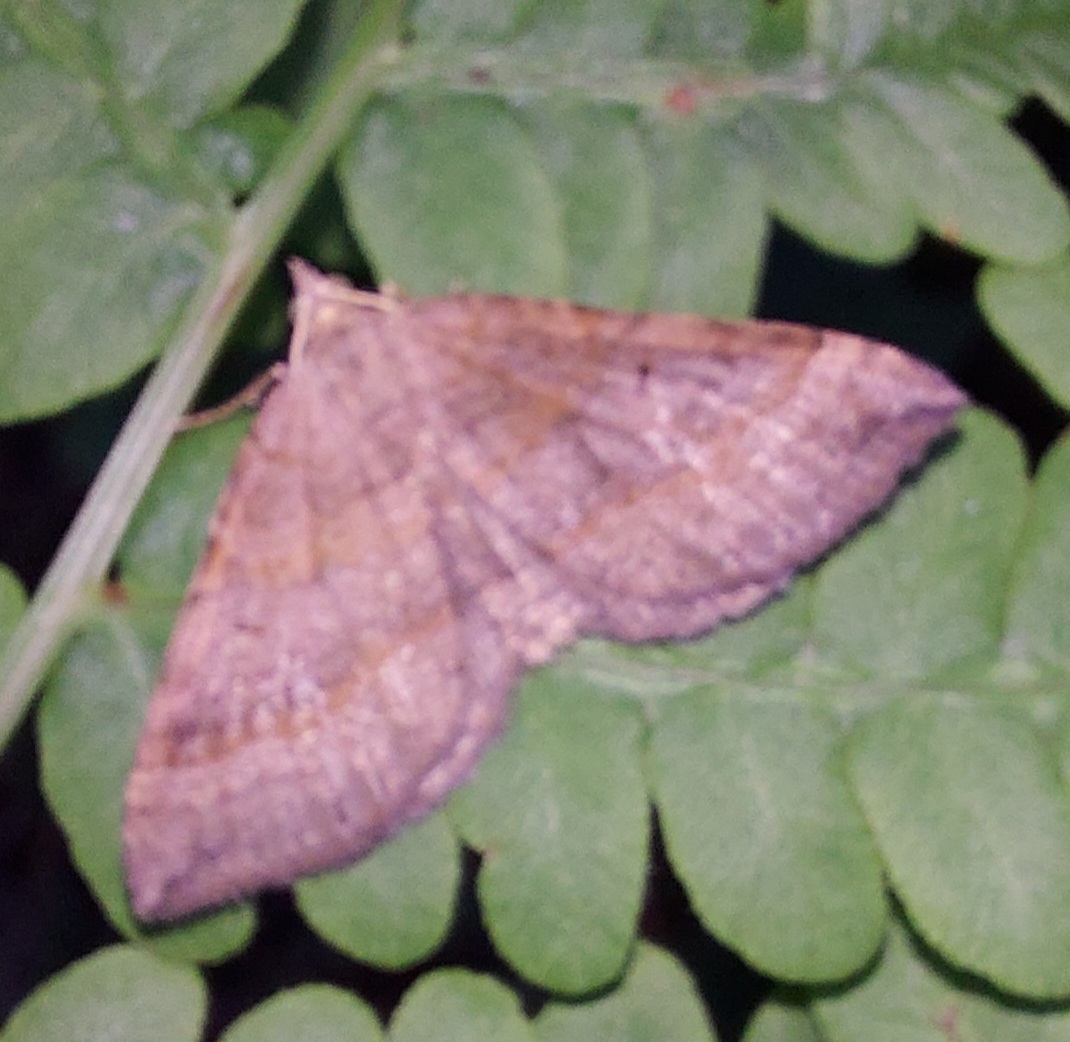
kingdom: Animalia
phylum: Arthropoda
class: Insecta
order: Lepidoptera
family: Geometridae
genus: Scotopteryx
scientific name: Scotopteryx chenopodiata
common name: Shaded broad-bar
